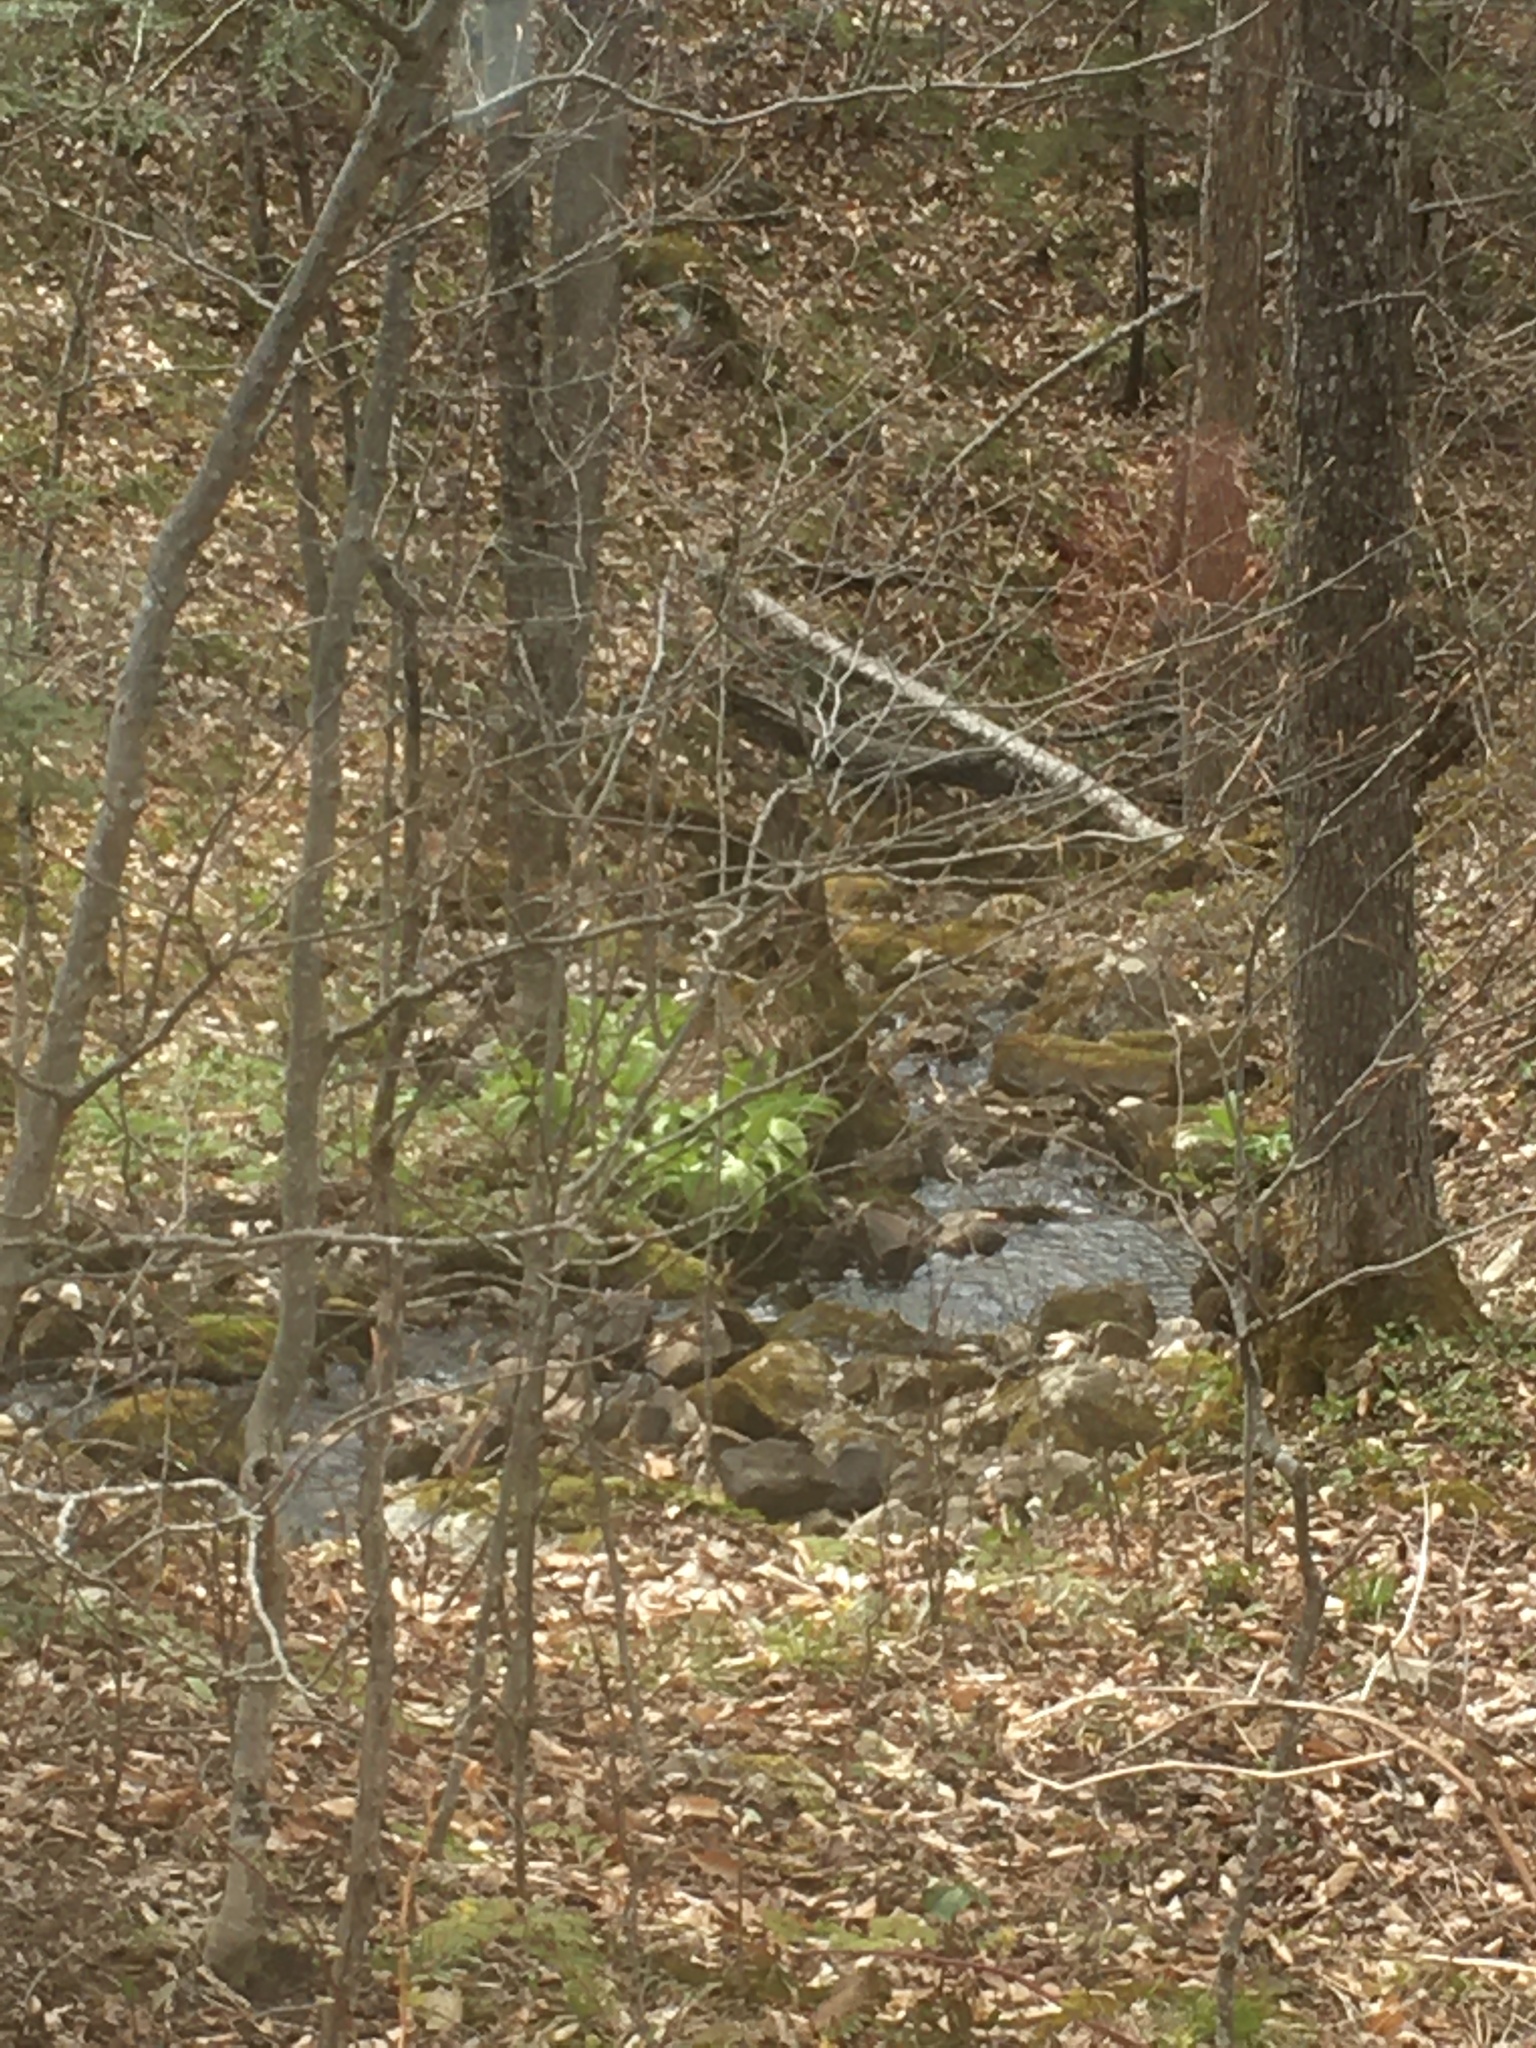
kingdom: Plantae
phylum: Tracheophyta
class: Liliopsida
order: Liliales
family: Melanthiaceae
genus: Veratrum
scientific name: Veratrum viride
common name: American false hellebore
